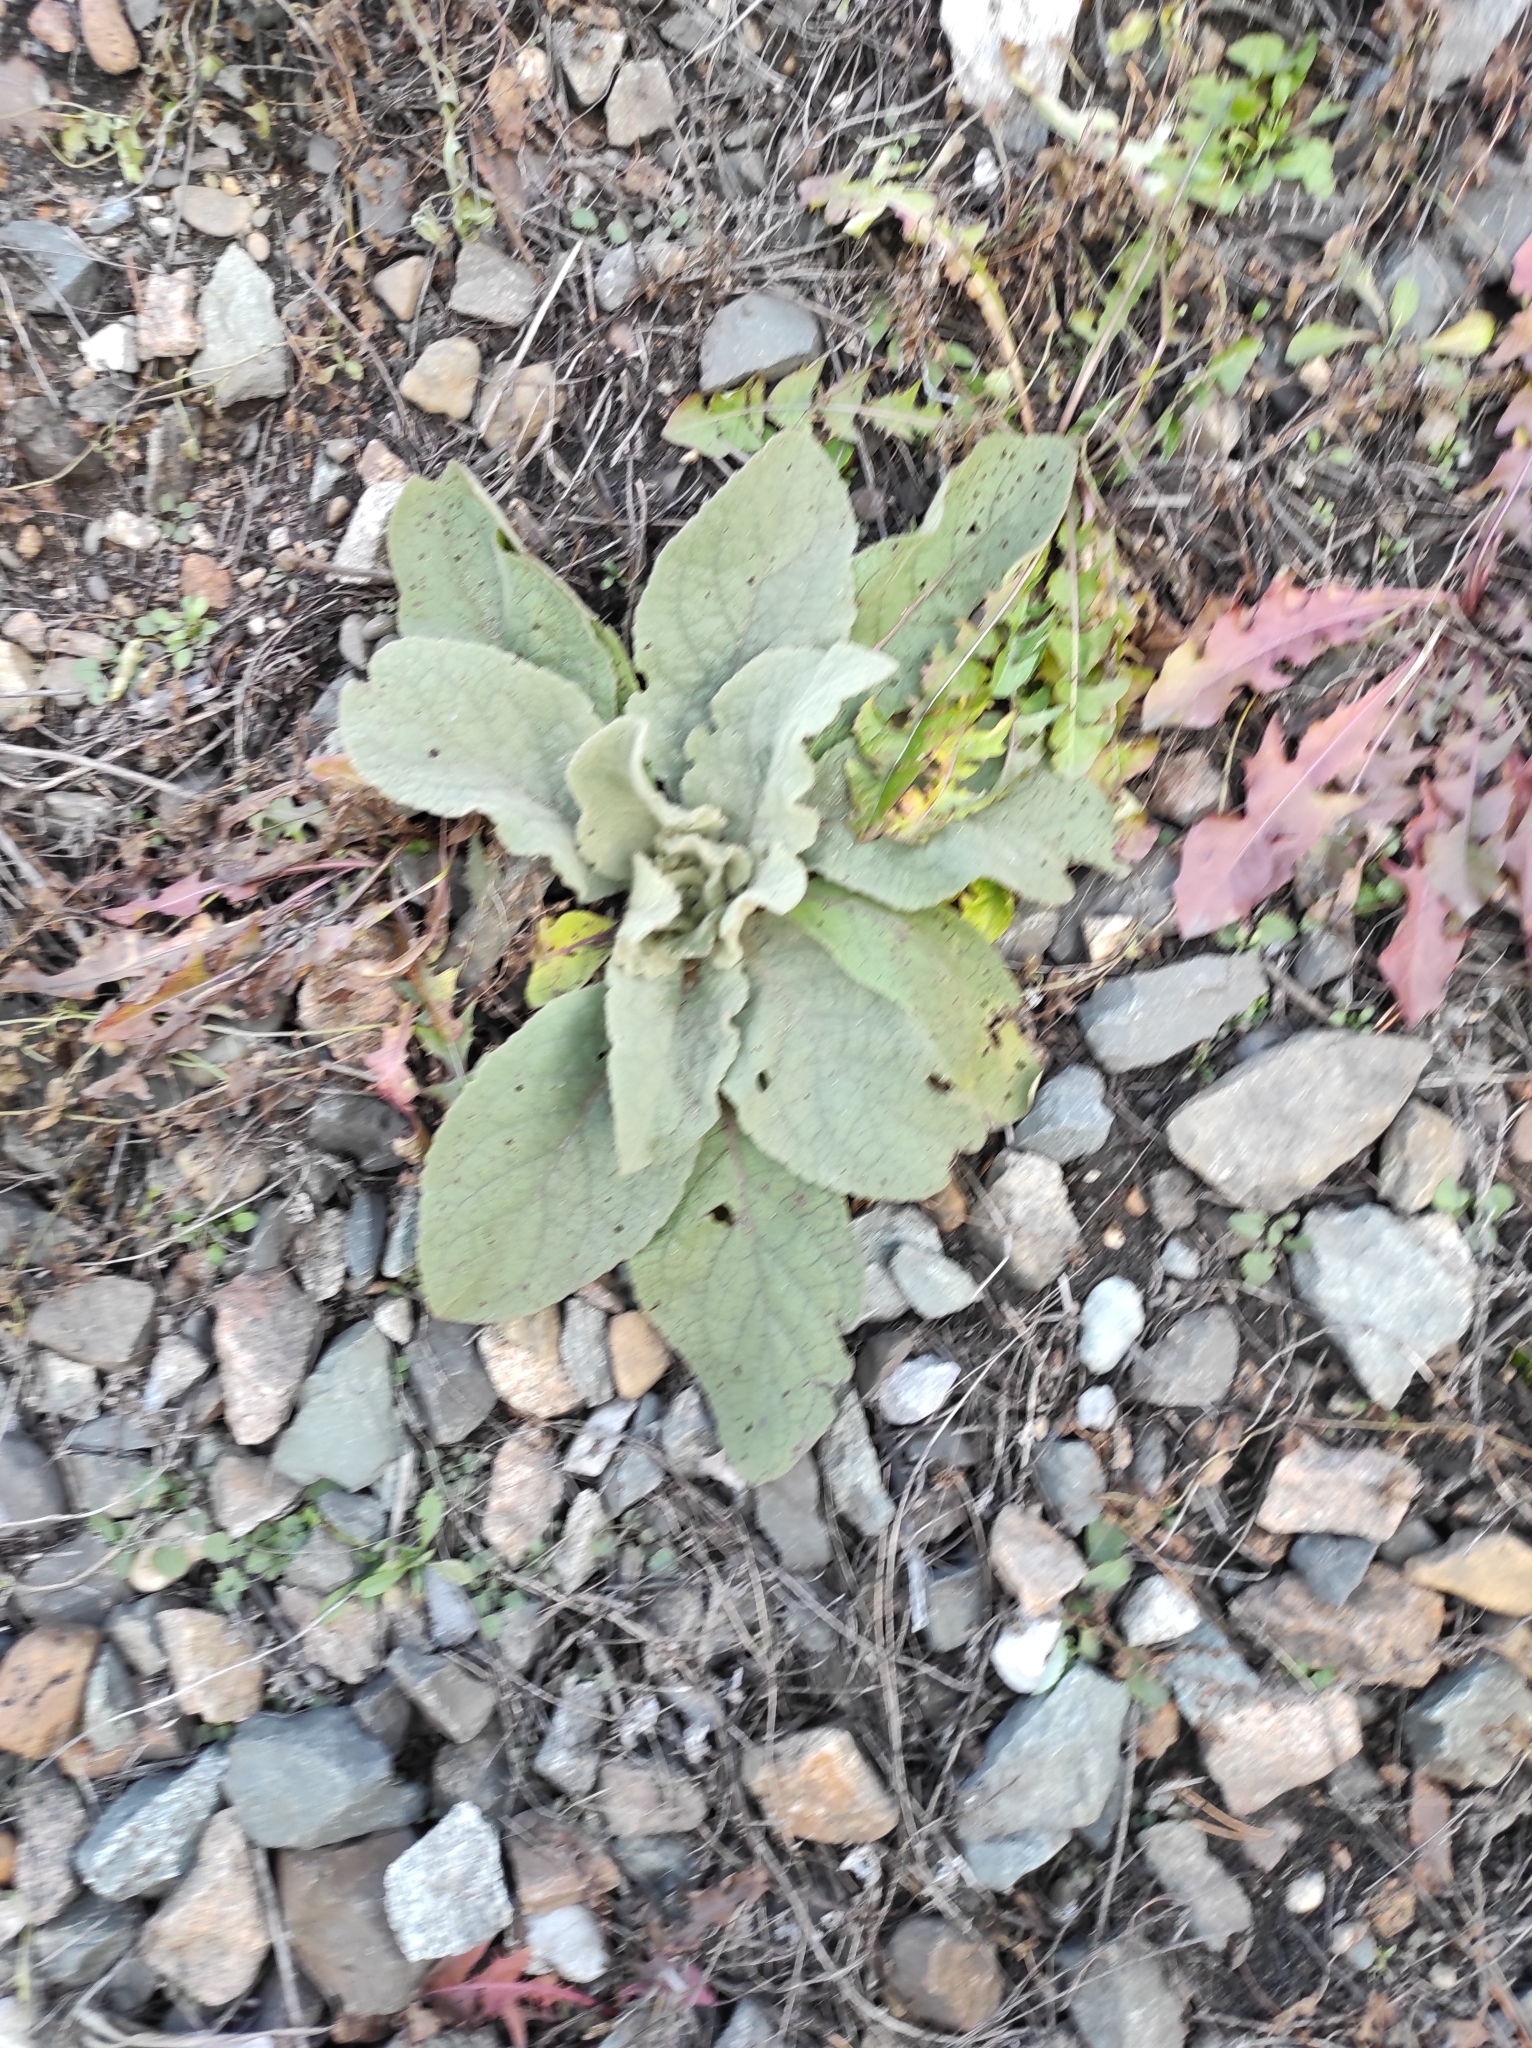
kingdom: Plantae
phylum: Tracheophyta
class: Magnoliopsida
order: Lamiales
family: Scrophulariaceae
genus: Verbascum
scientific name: Verbascum thapsus
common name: Common mullein
